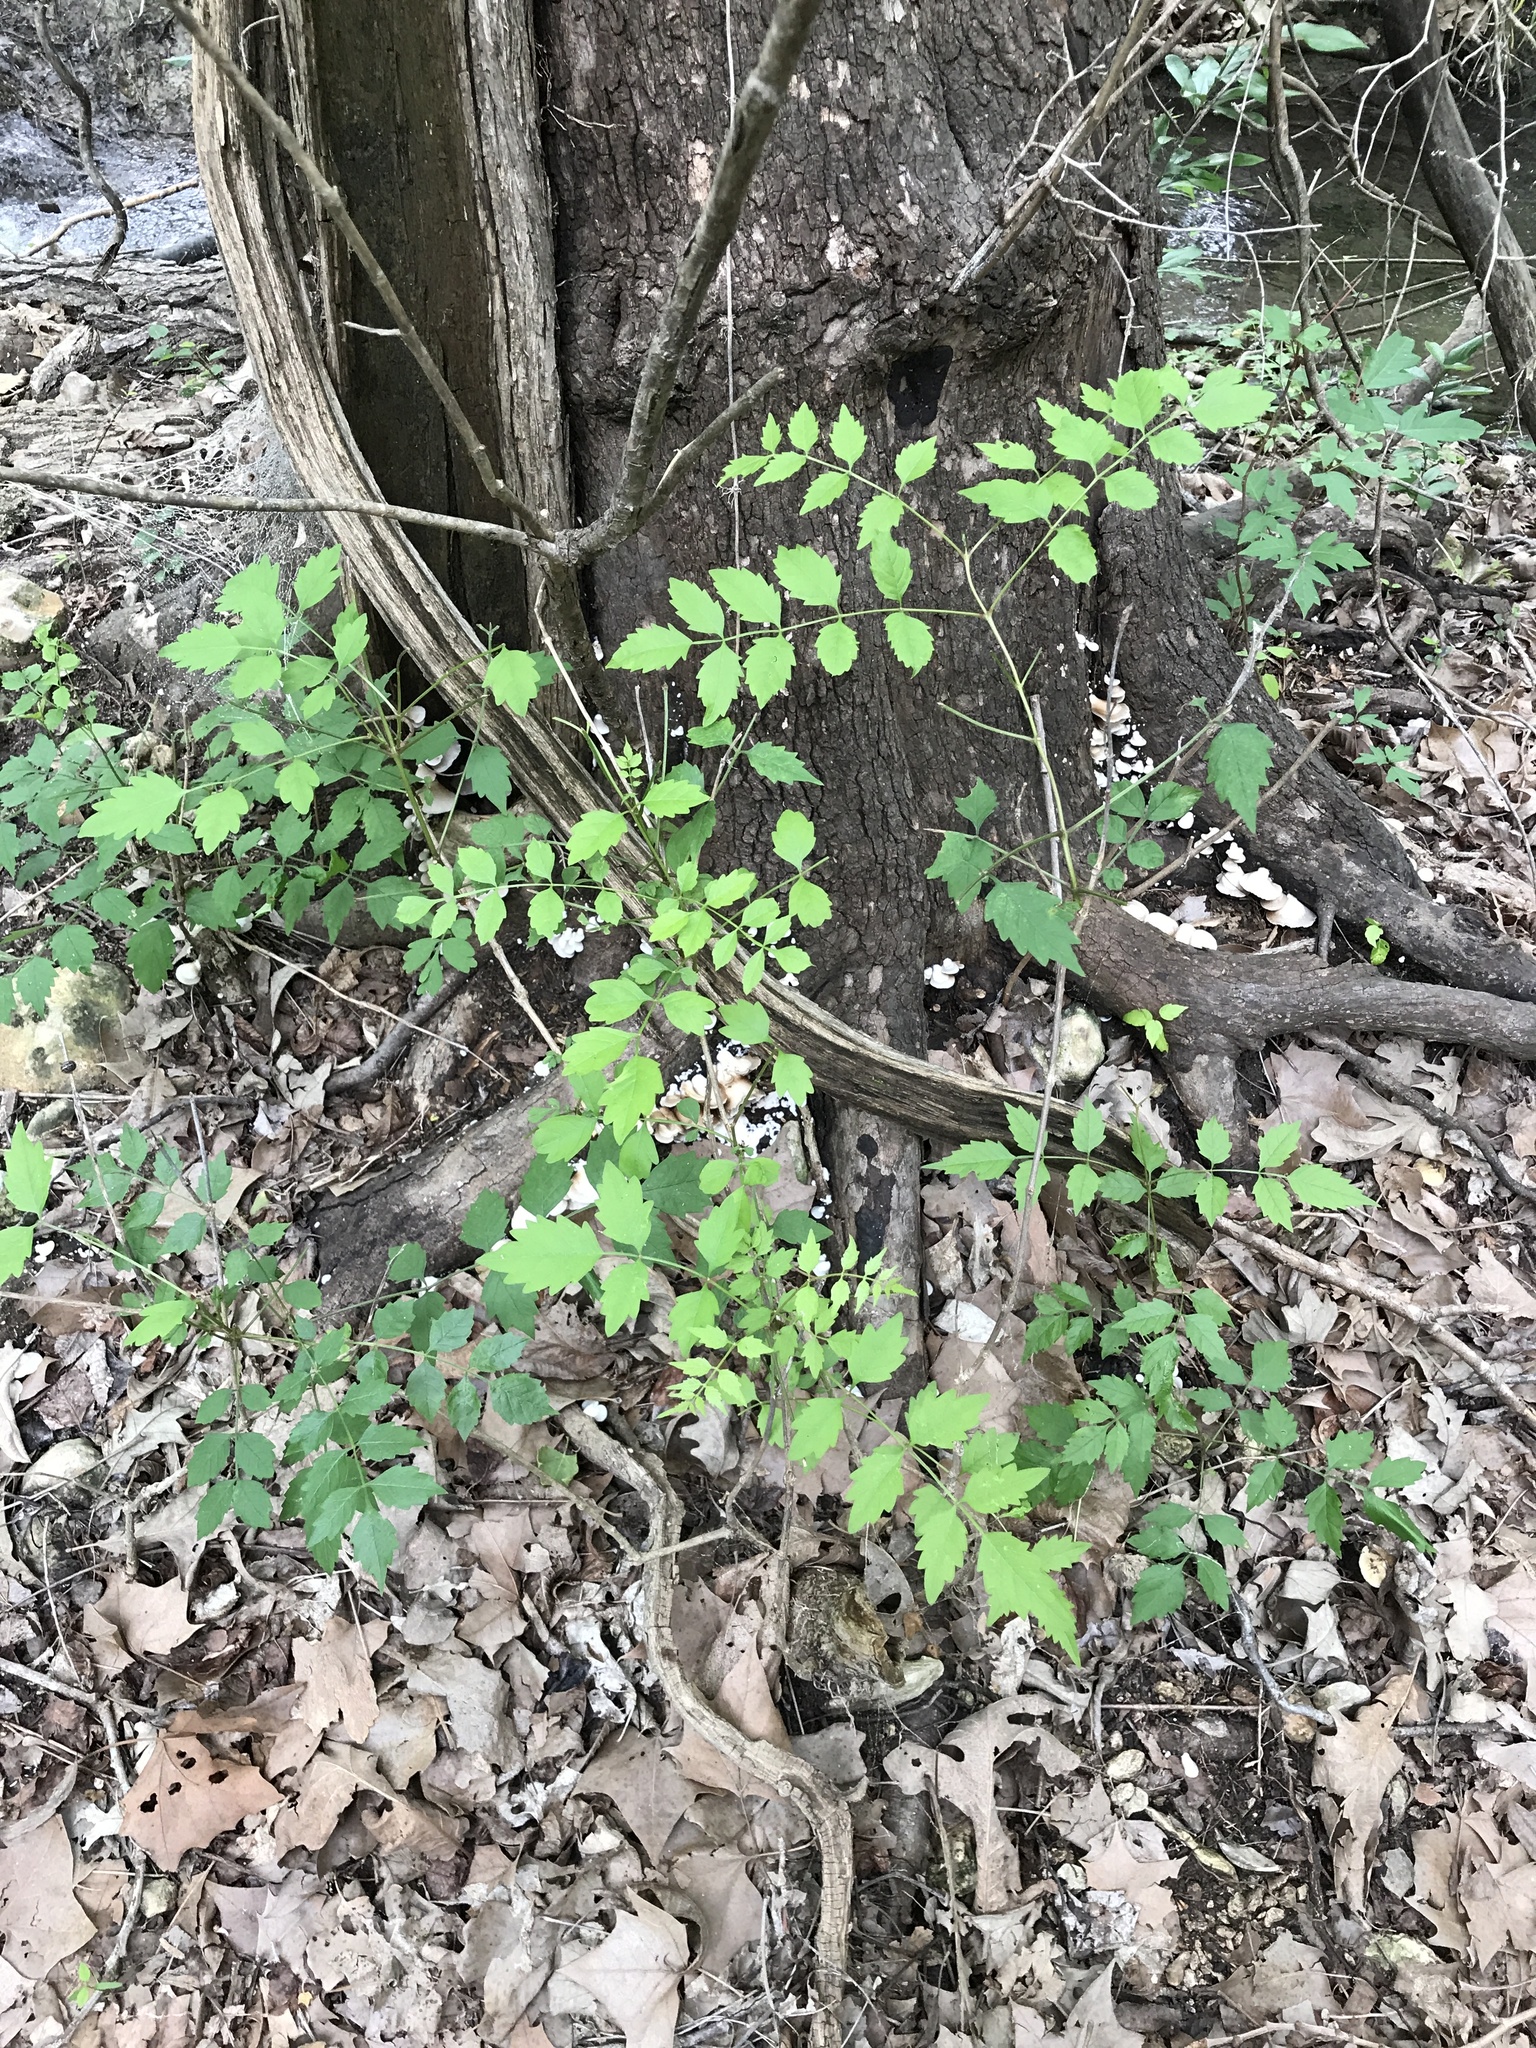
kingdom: Plantae
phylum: Tracheophyta
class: Magnoliopsida
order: Lamiales
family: Bignoniaceae
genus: Campsis
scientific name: Campsis radicans
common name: Trumpet-creeper
